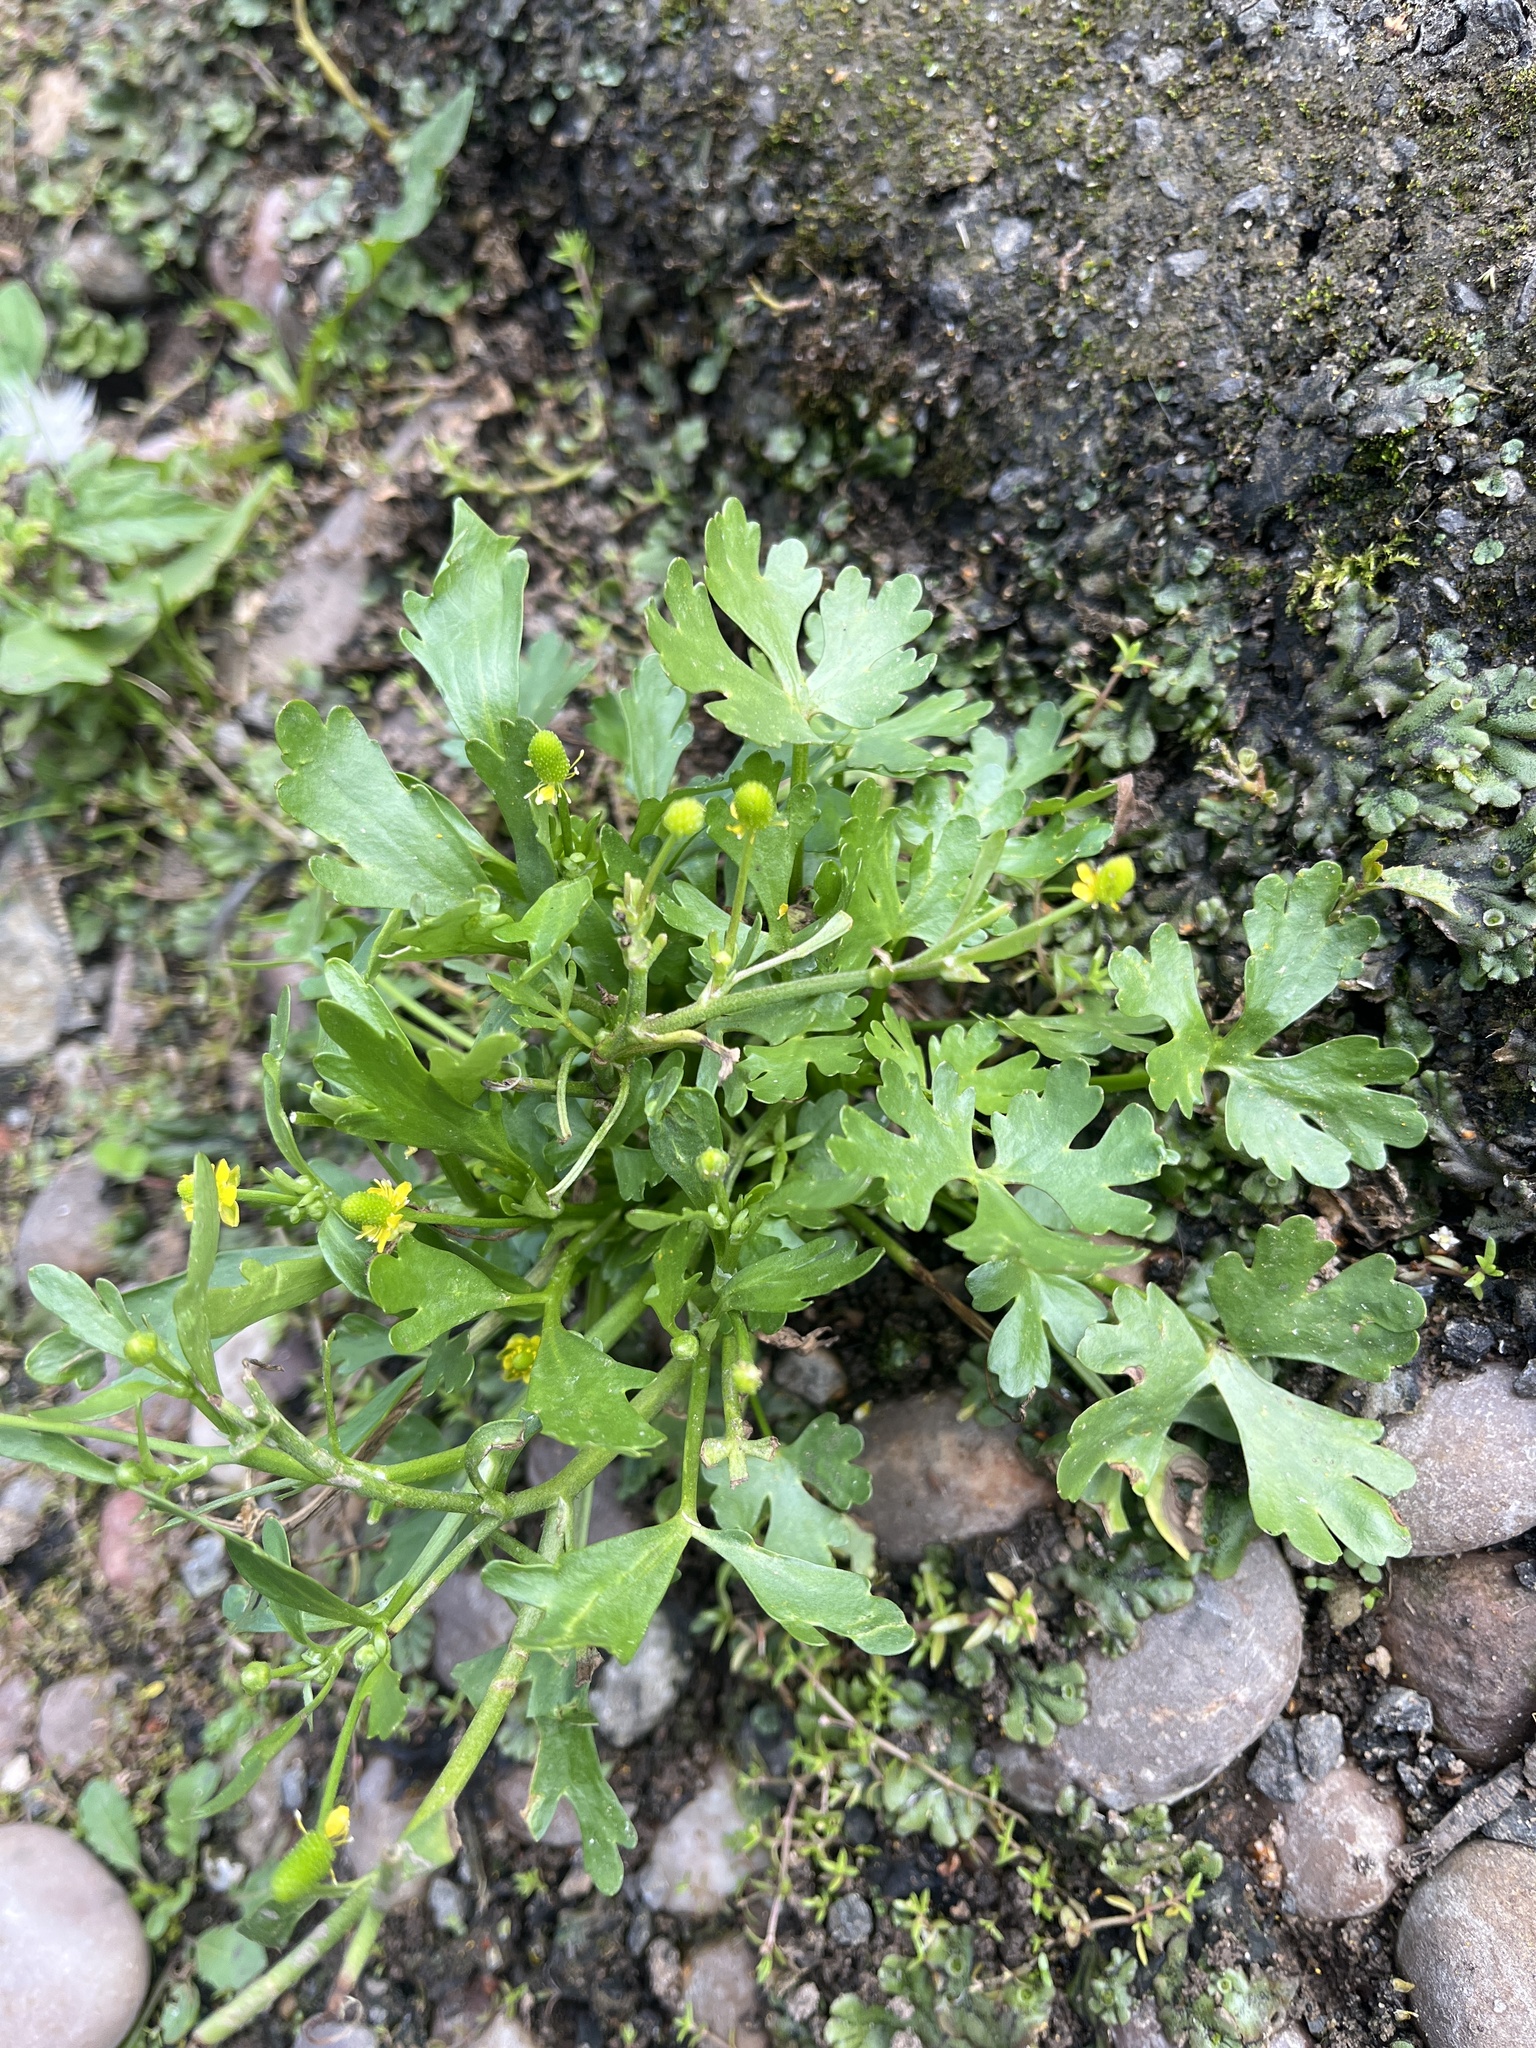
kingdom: Plantae
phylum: Tracheophyta
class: Magnoliopsida
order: Ranunculales
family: Ranunculaceae
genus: Ranunculus
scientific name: Ranunculus sceleratus
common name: Celery-leaved buttercup
